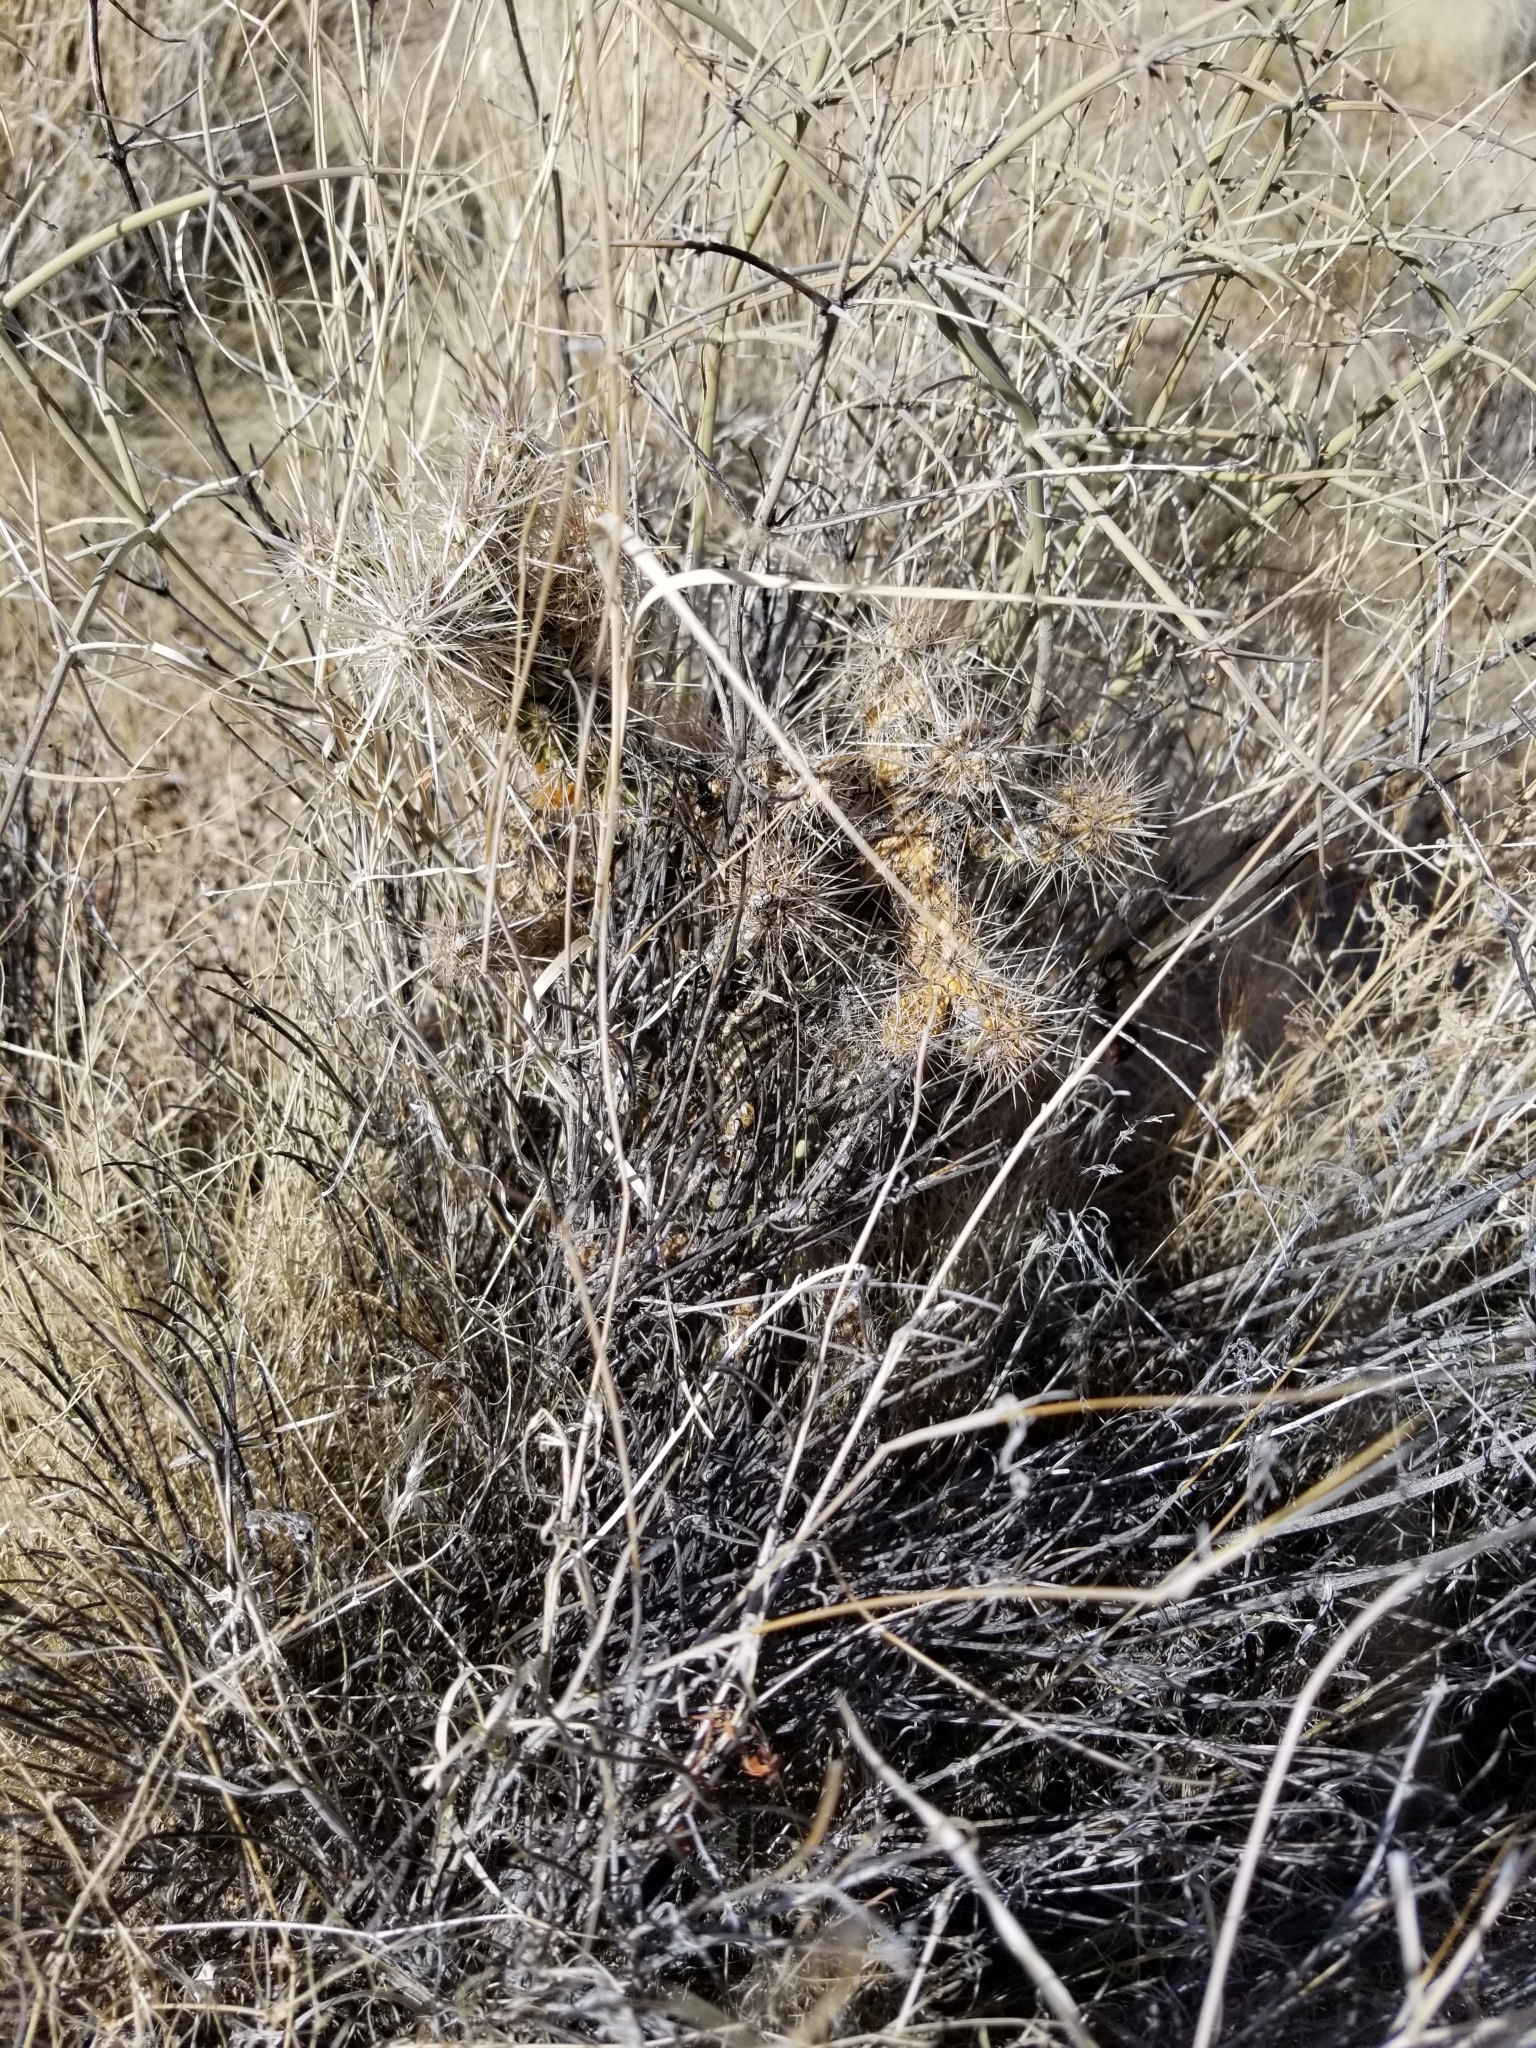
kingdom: Plantae
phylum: Tracheophyta
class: Magnoliopsida
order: Caryophyllales
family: Cactaceae
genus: Cylindropuntia
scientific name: Cylindropuntia echinocarpa
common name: Ground cholla
